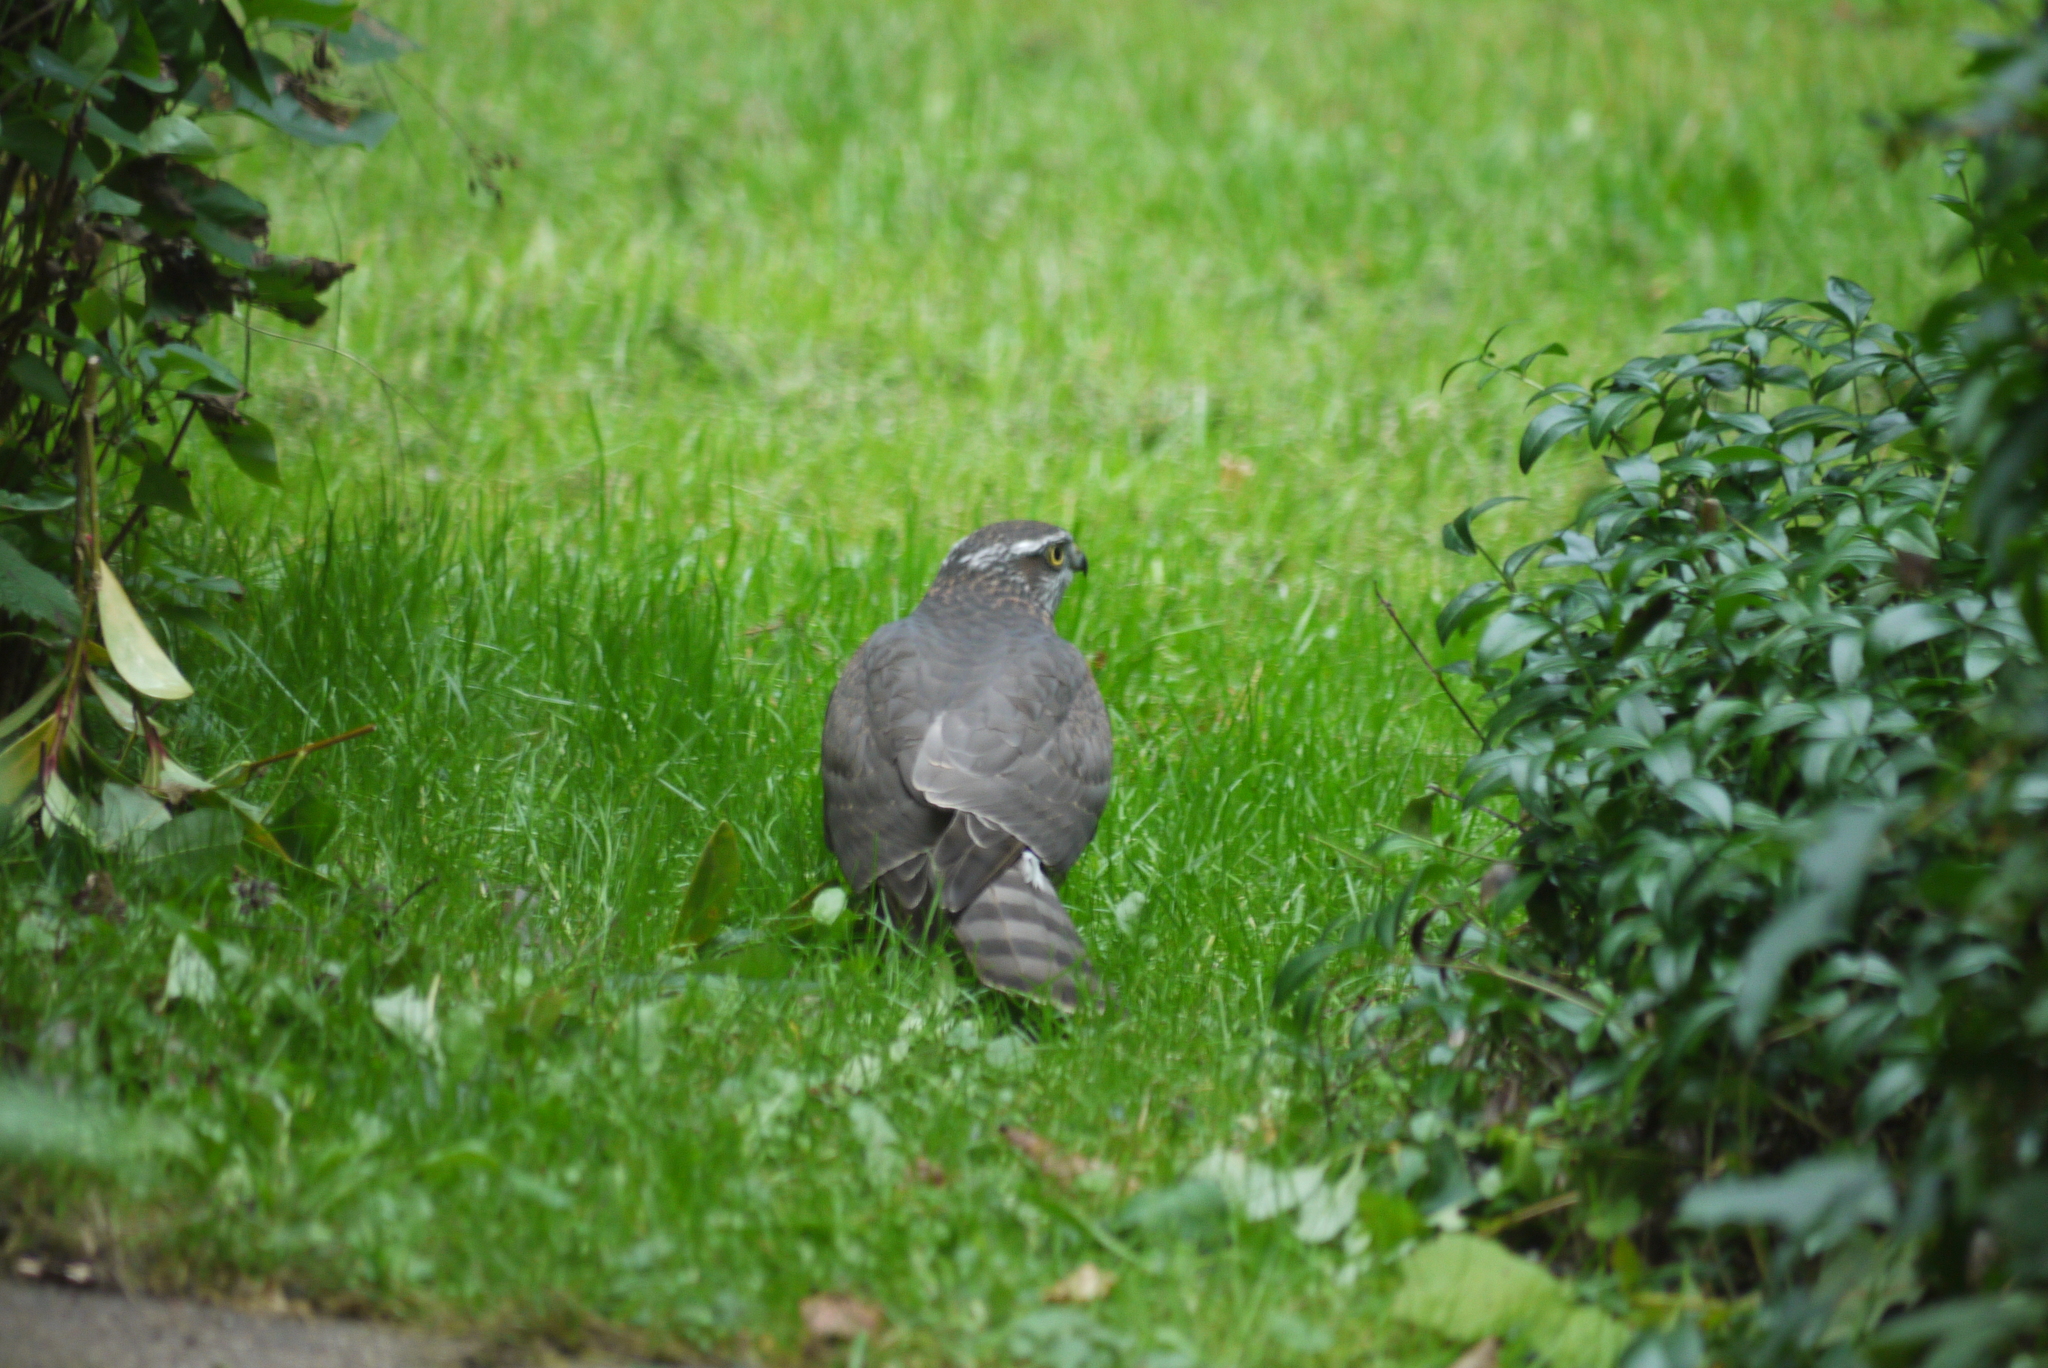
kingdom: Animalia
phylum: Chordata
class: Aves
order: Accipitriformes
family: Accipitridae
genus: Accipiter
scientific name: Accipiter nisus
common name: Eurasian sparrowhawk
